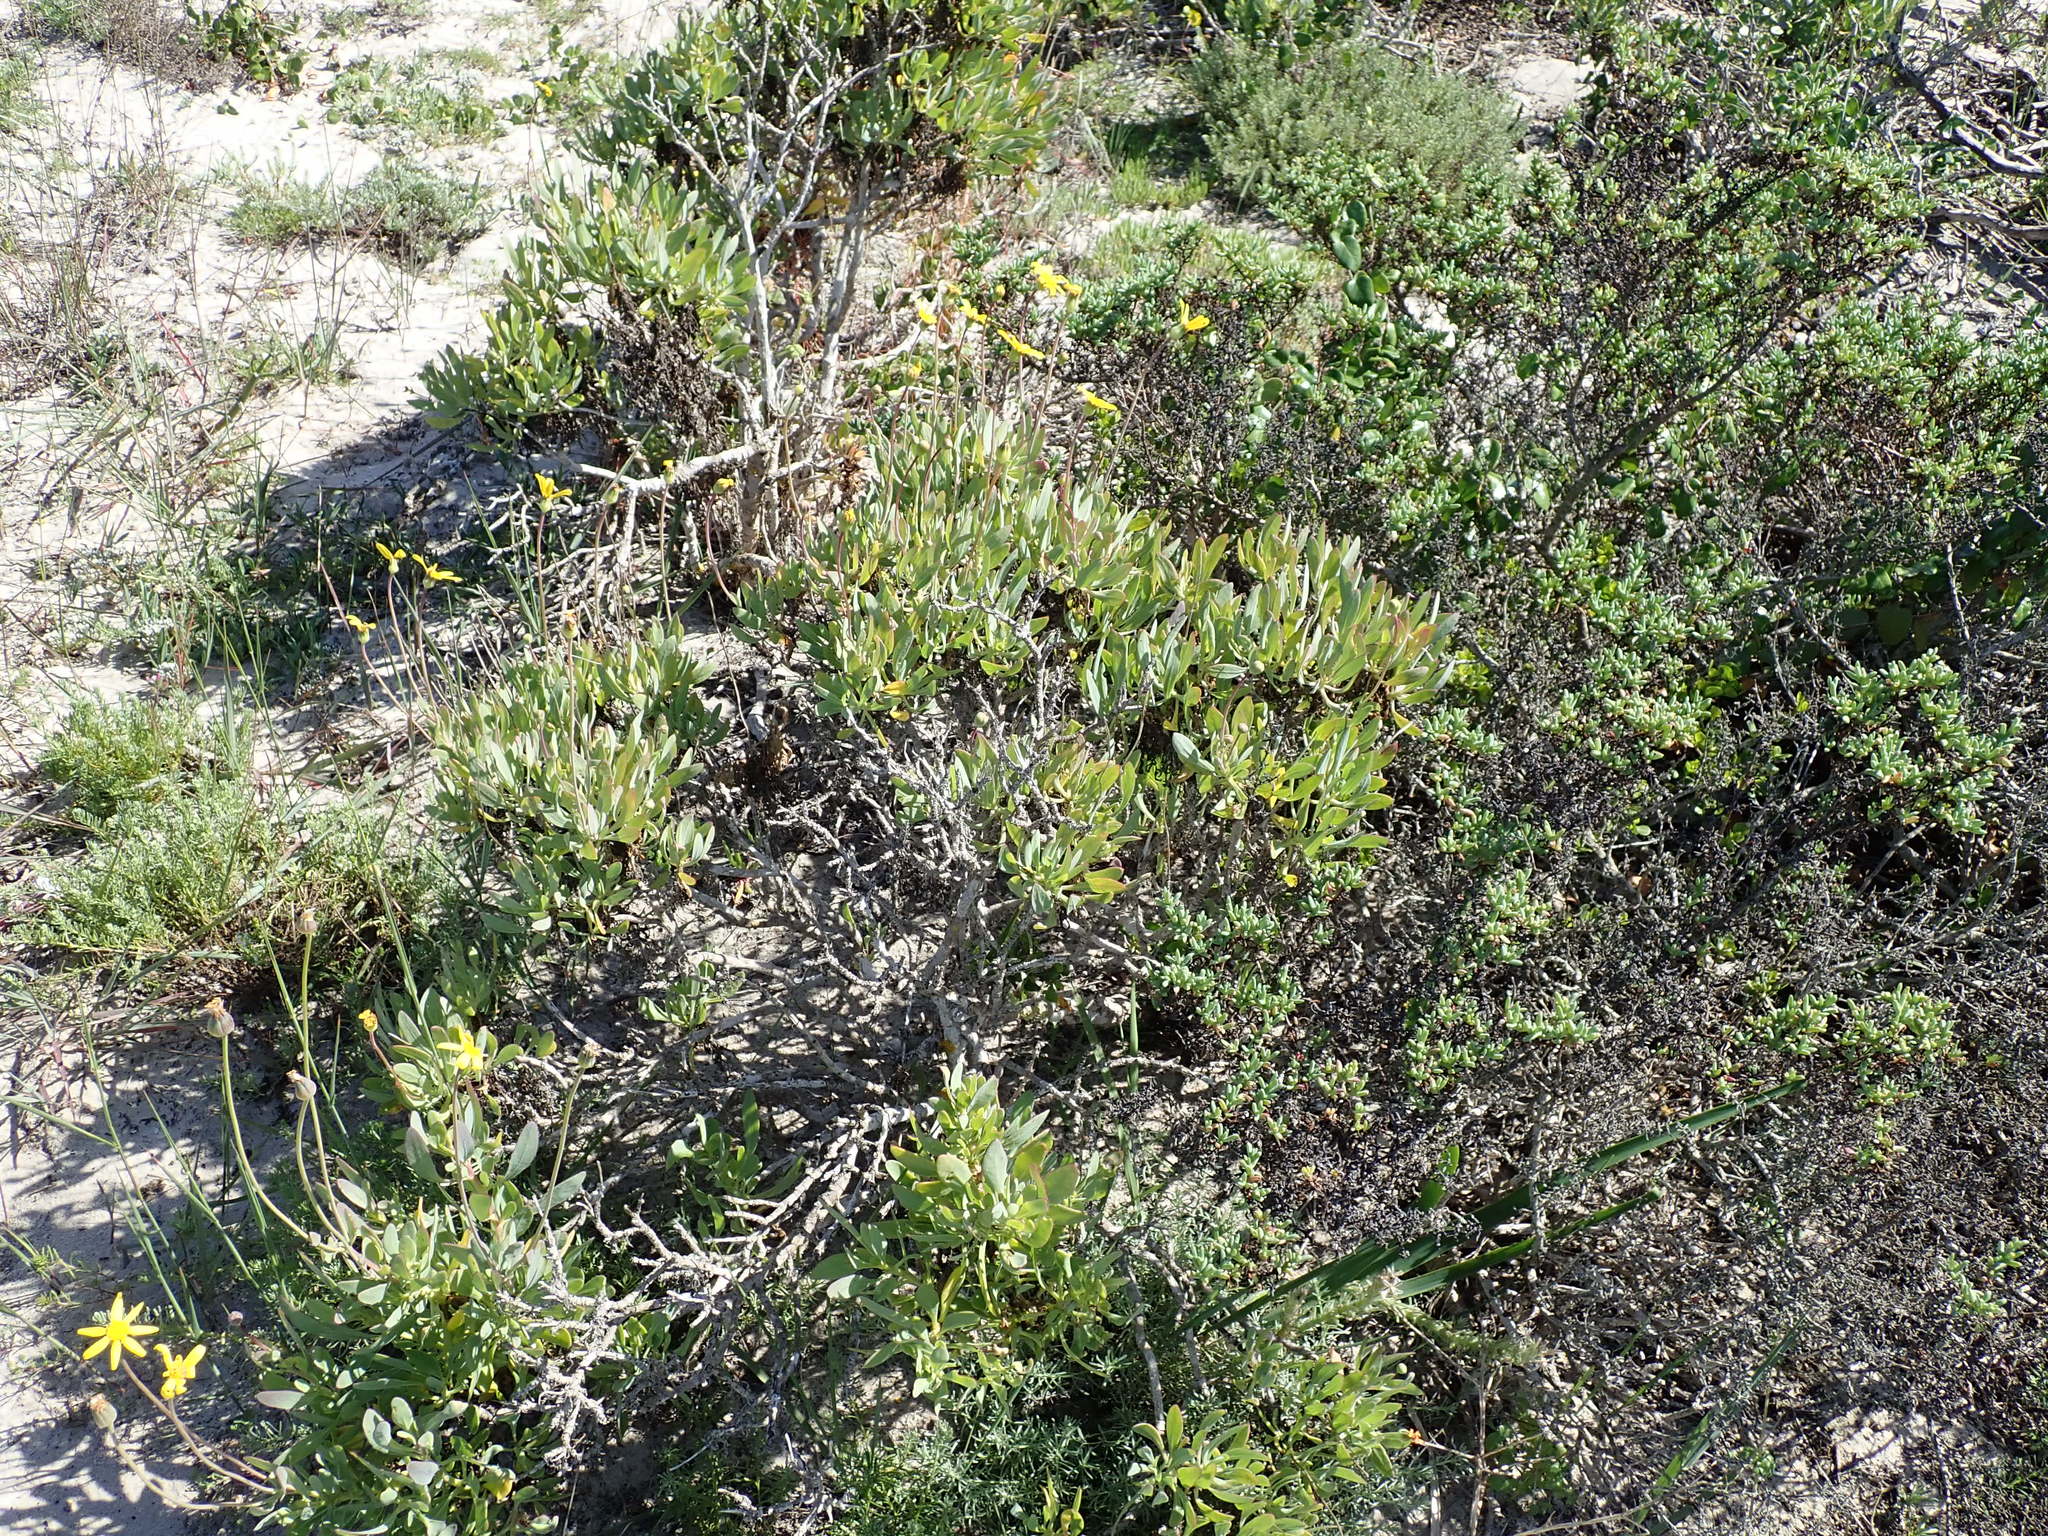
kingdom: Plantae
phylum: Tracheophyta
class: Magnoliopsida
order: Asterales
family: Asteraceae
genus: Othonna
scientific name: Othonna coronopifolia
